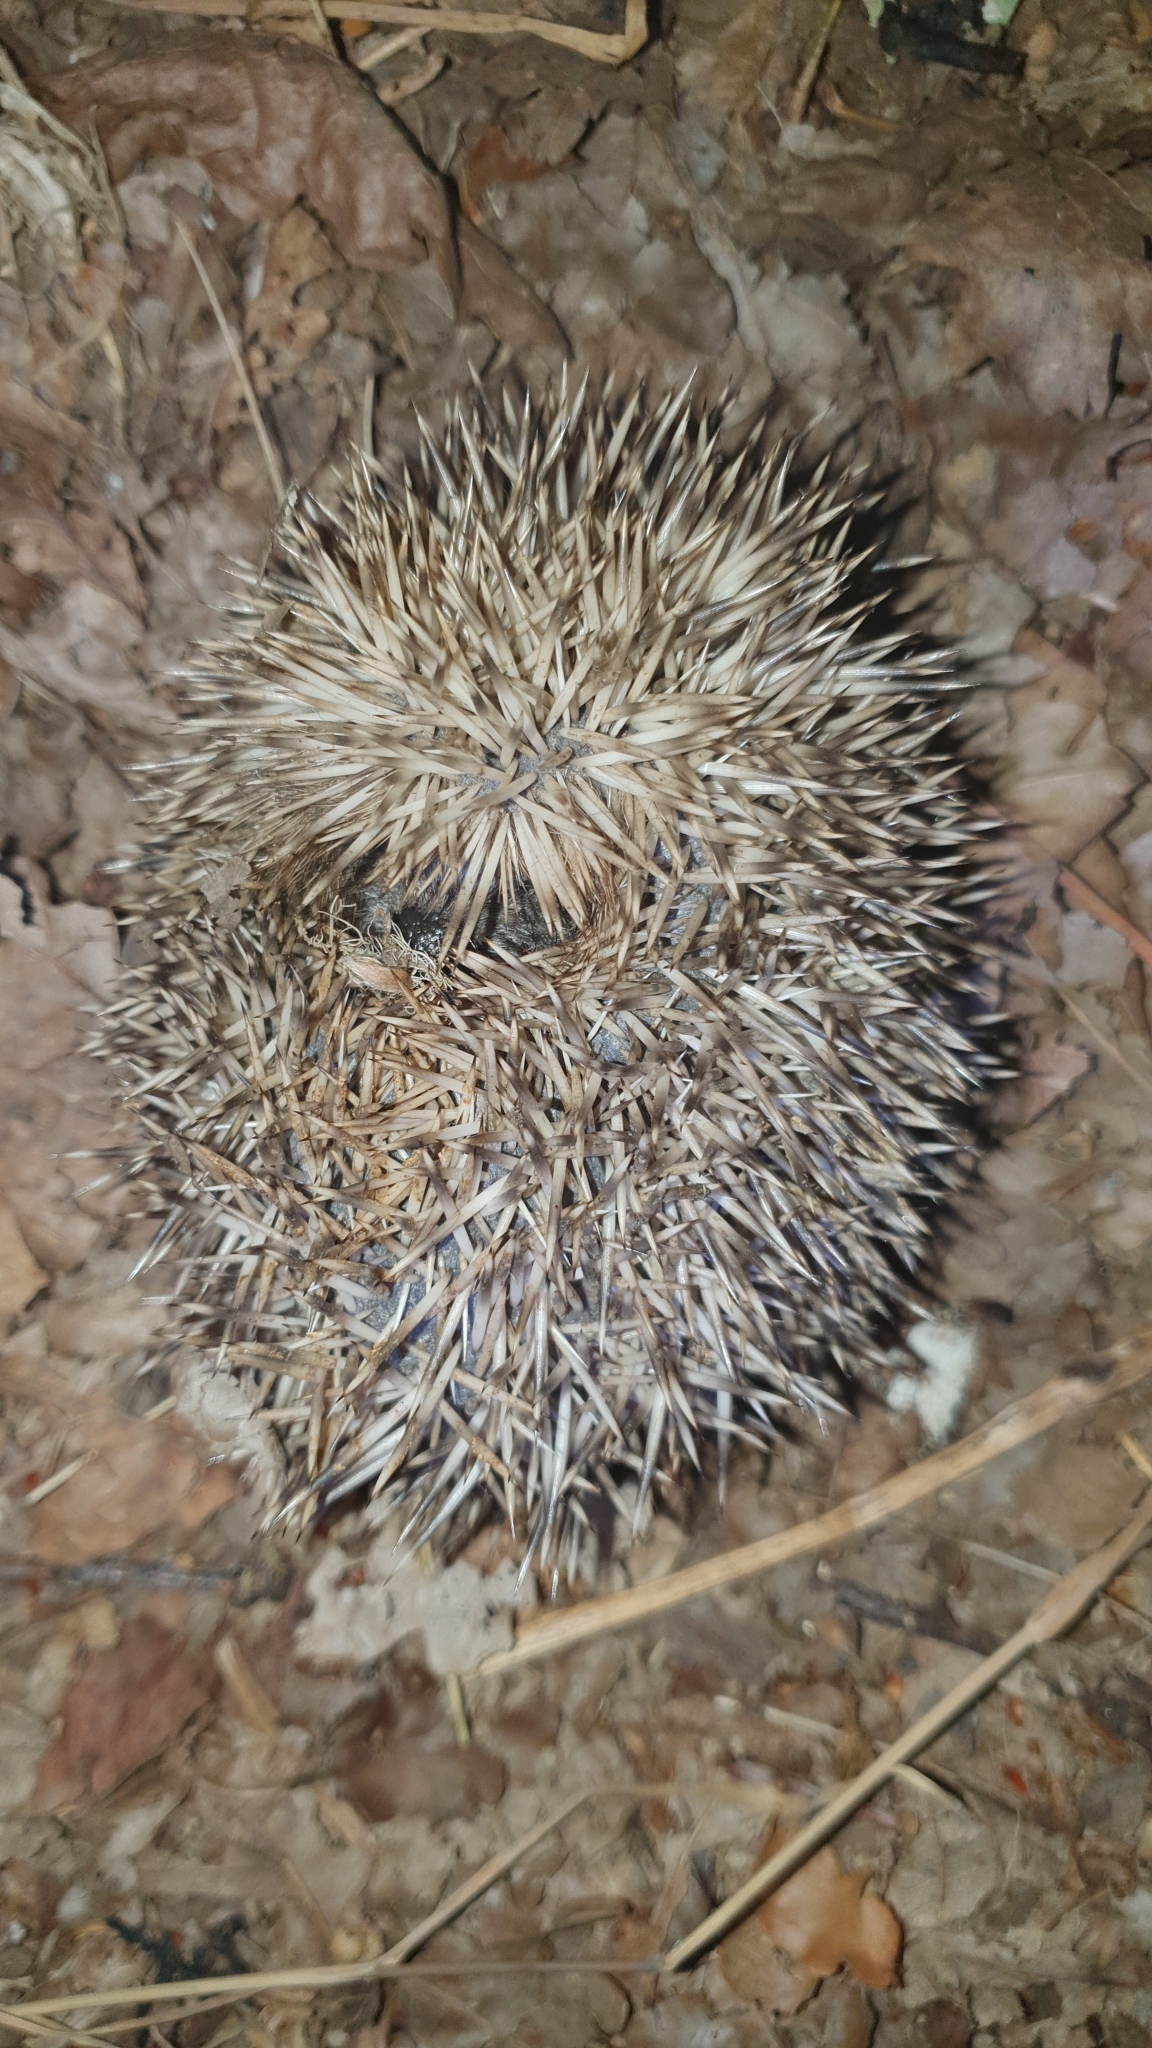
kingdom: Animalia
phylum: Chordata
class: Mammalia
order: Erinaceomorpha
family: Erinaceidae
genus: Erinaceus
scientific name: Erinaceus europaeus
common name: West european hedgehog
